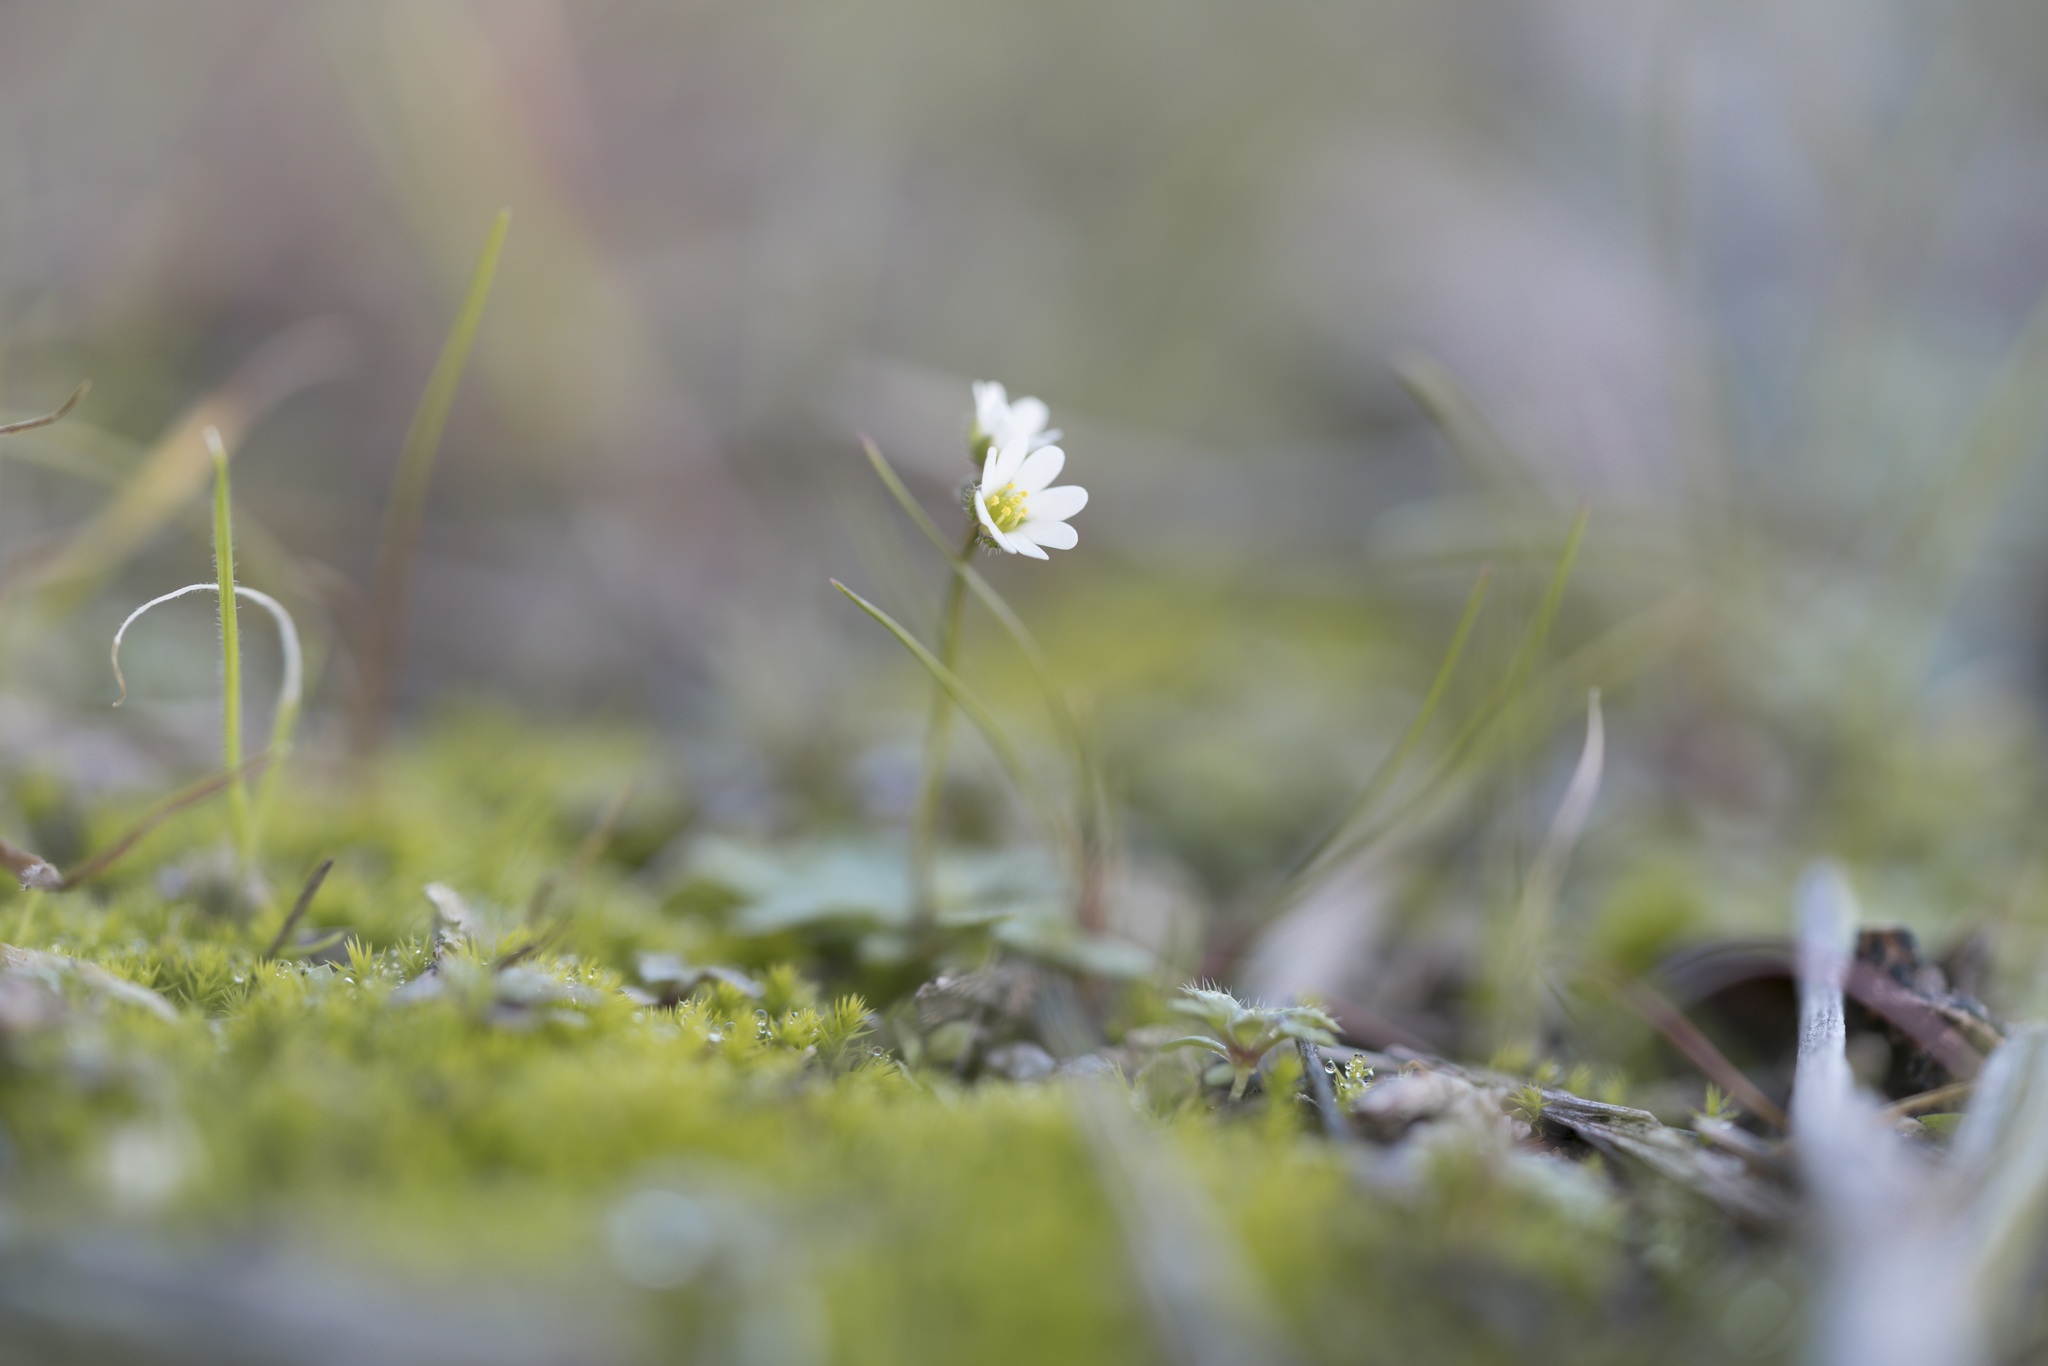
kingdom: Plantae
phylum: Tracheophyta
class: Magnoliopsida
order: Brassicales
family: Brassicaceae
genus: Draba
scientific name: Draba verna
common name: Spring draba
